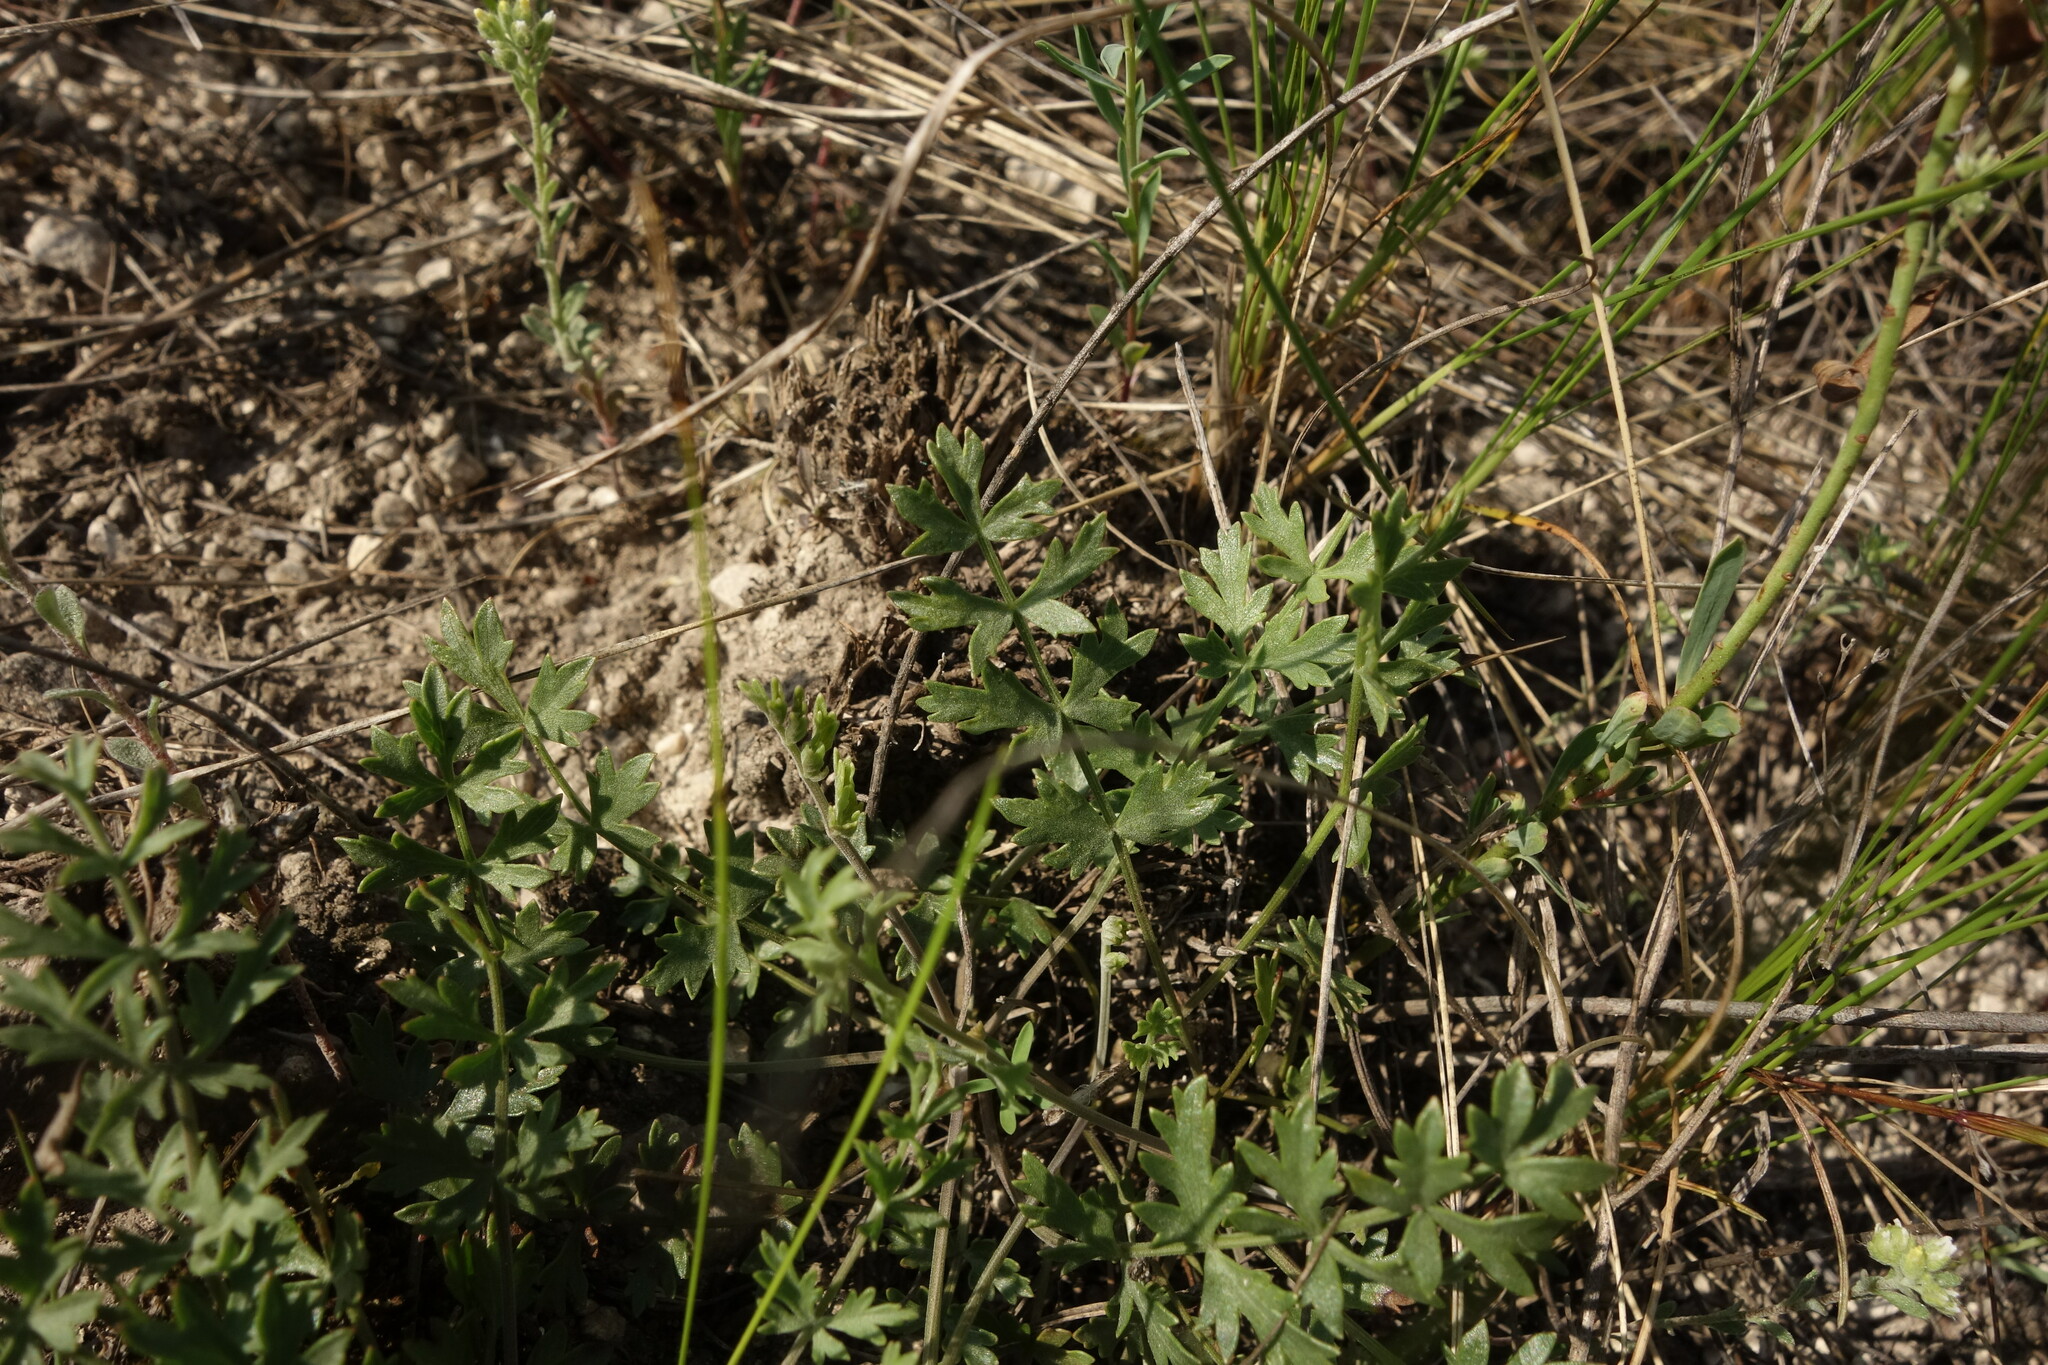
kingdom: Plantae
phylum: Tracheophyta
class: Magnoliopsida
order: Apiales
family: Apiaceae
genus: Pimpinella
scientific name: Pimpinella tragium
